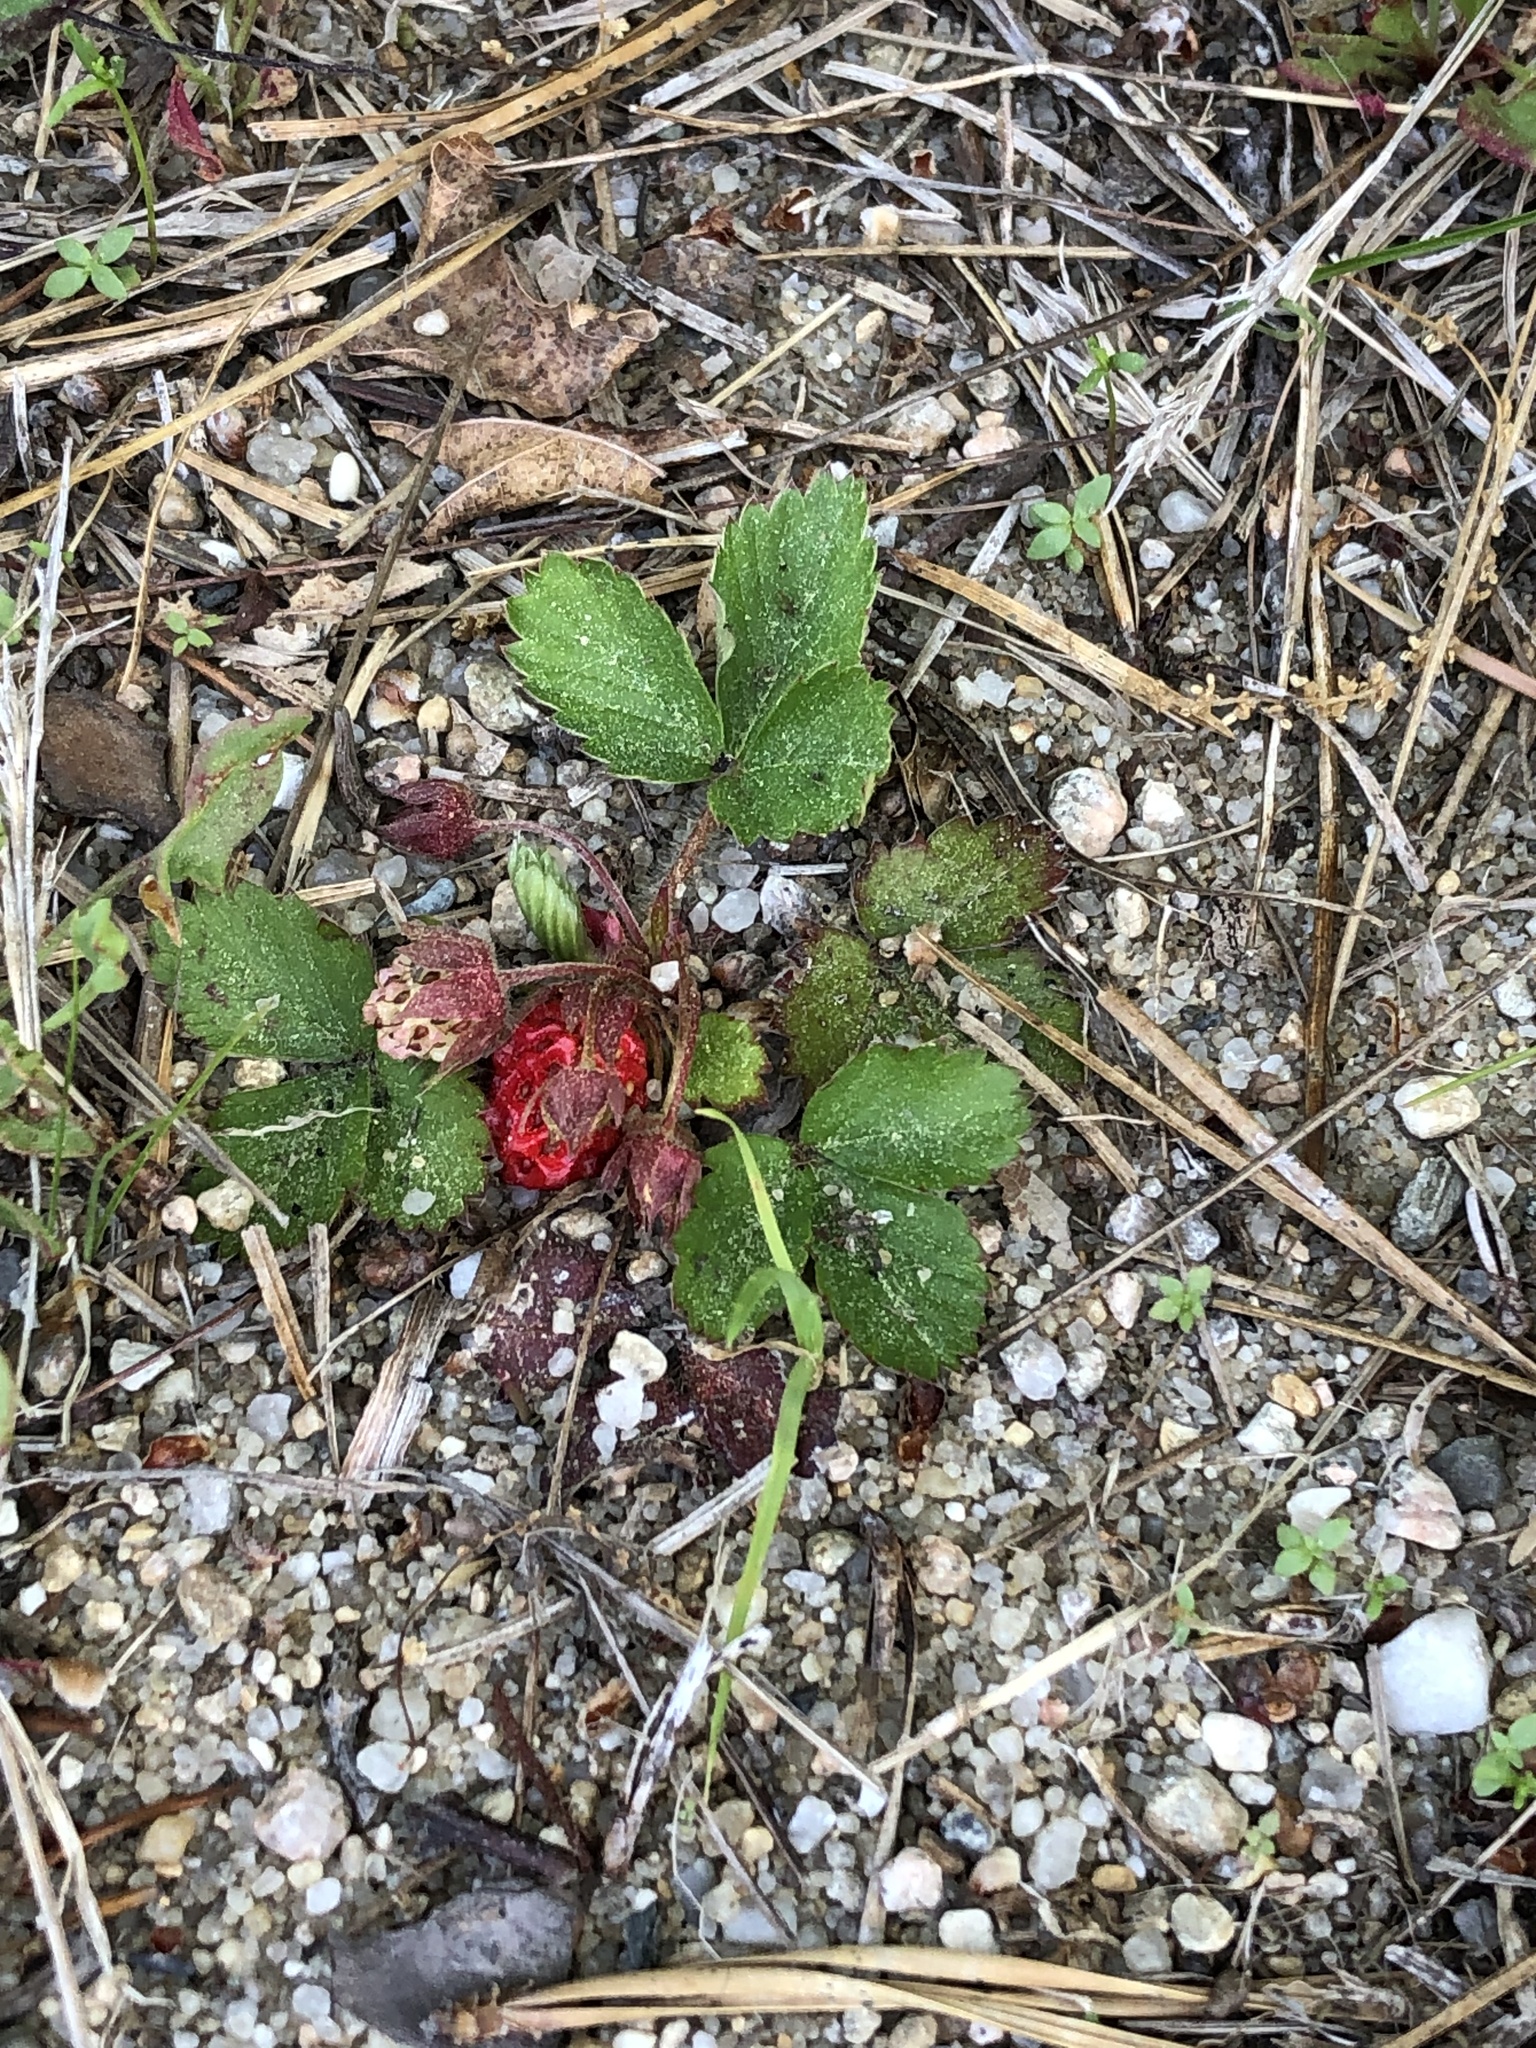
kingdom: Plantae
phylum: Tracheophyta
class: Magnoliopsida
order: Rosales
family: Rosaceae
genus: Fragaria
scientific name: Fragaria virginiana
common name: Thickleaved wild strawberry
